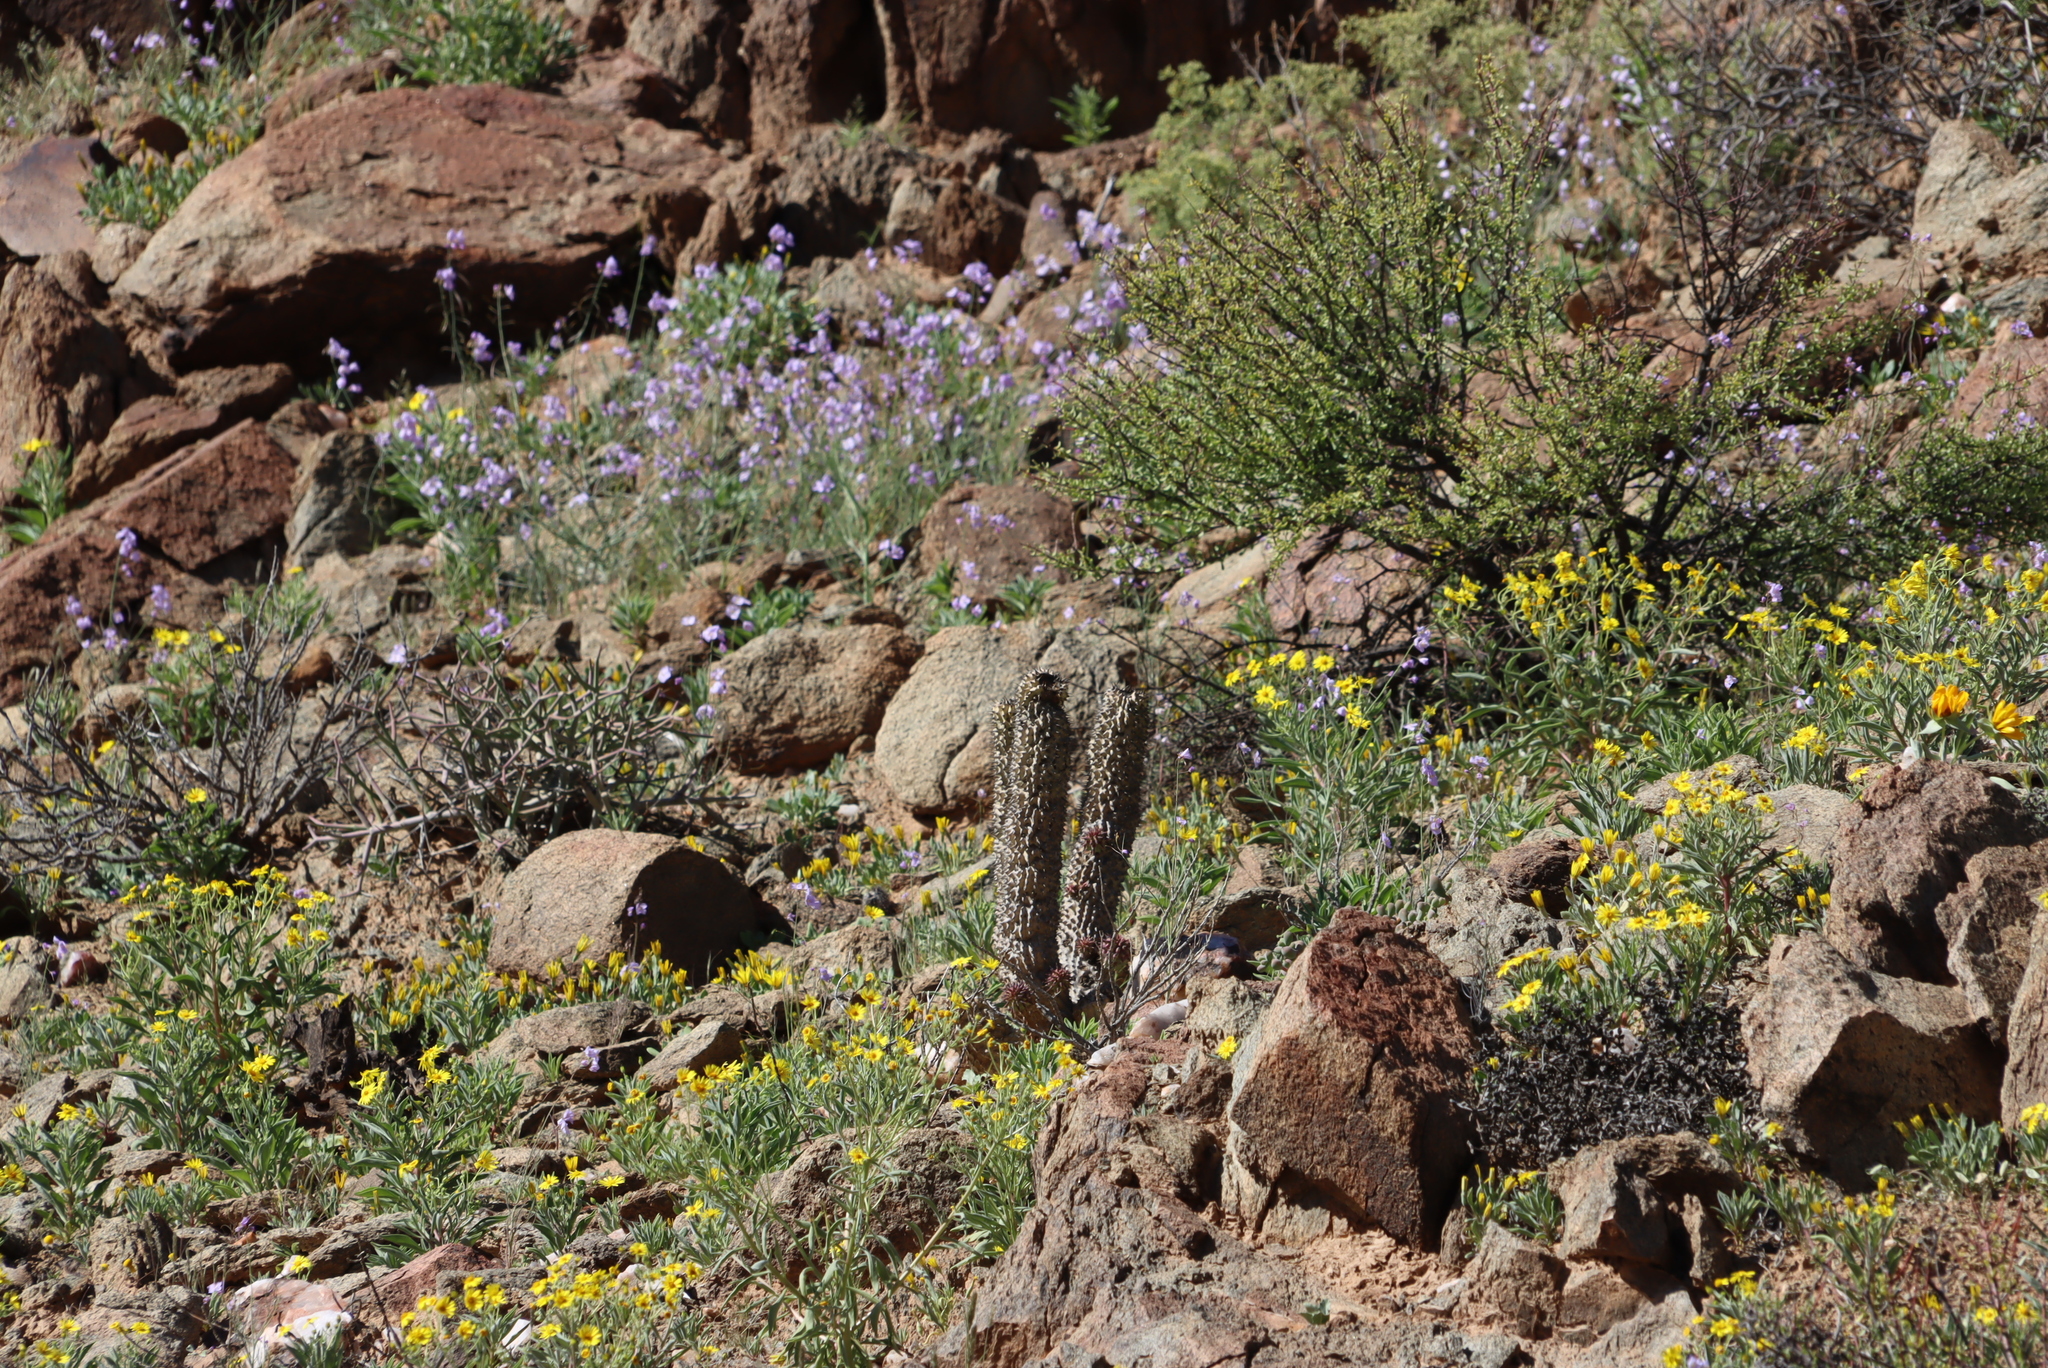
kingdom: Plantae
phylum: Tracheophyta
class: Magnoliopsida
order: Brassicales
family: Brassicaceae
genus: Heliophila
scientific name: Heliophila trifurca
